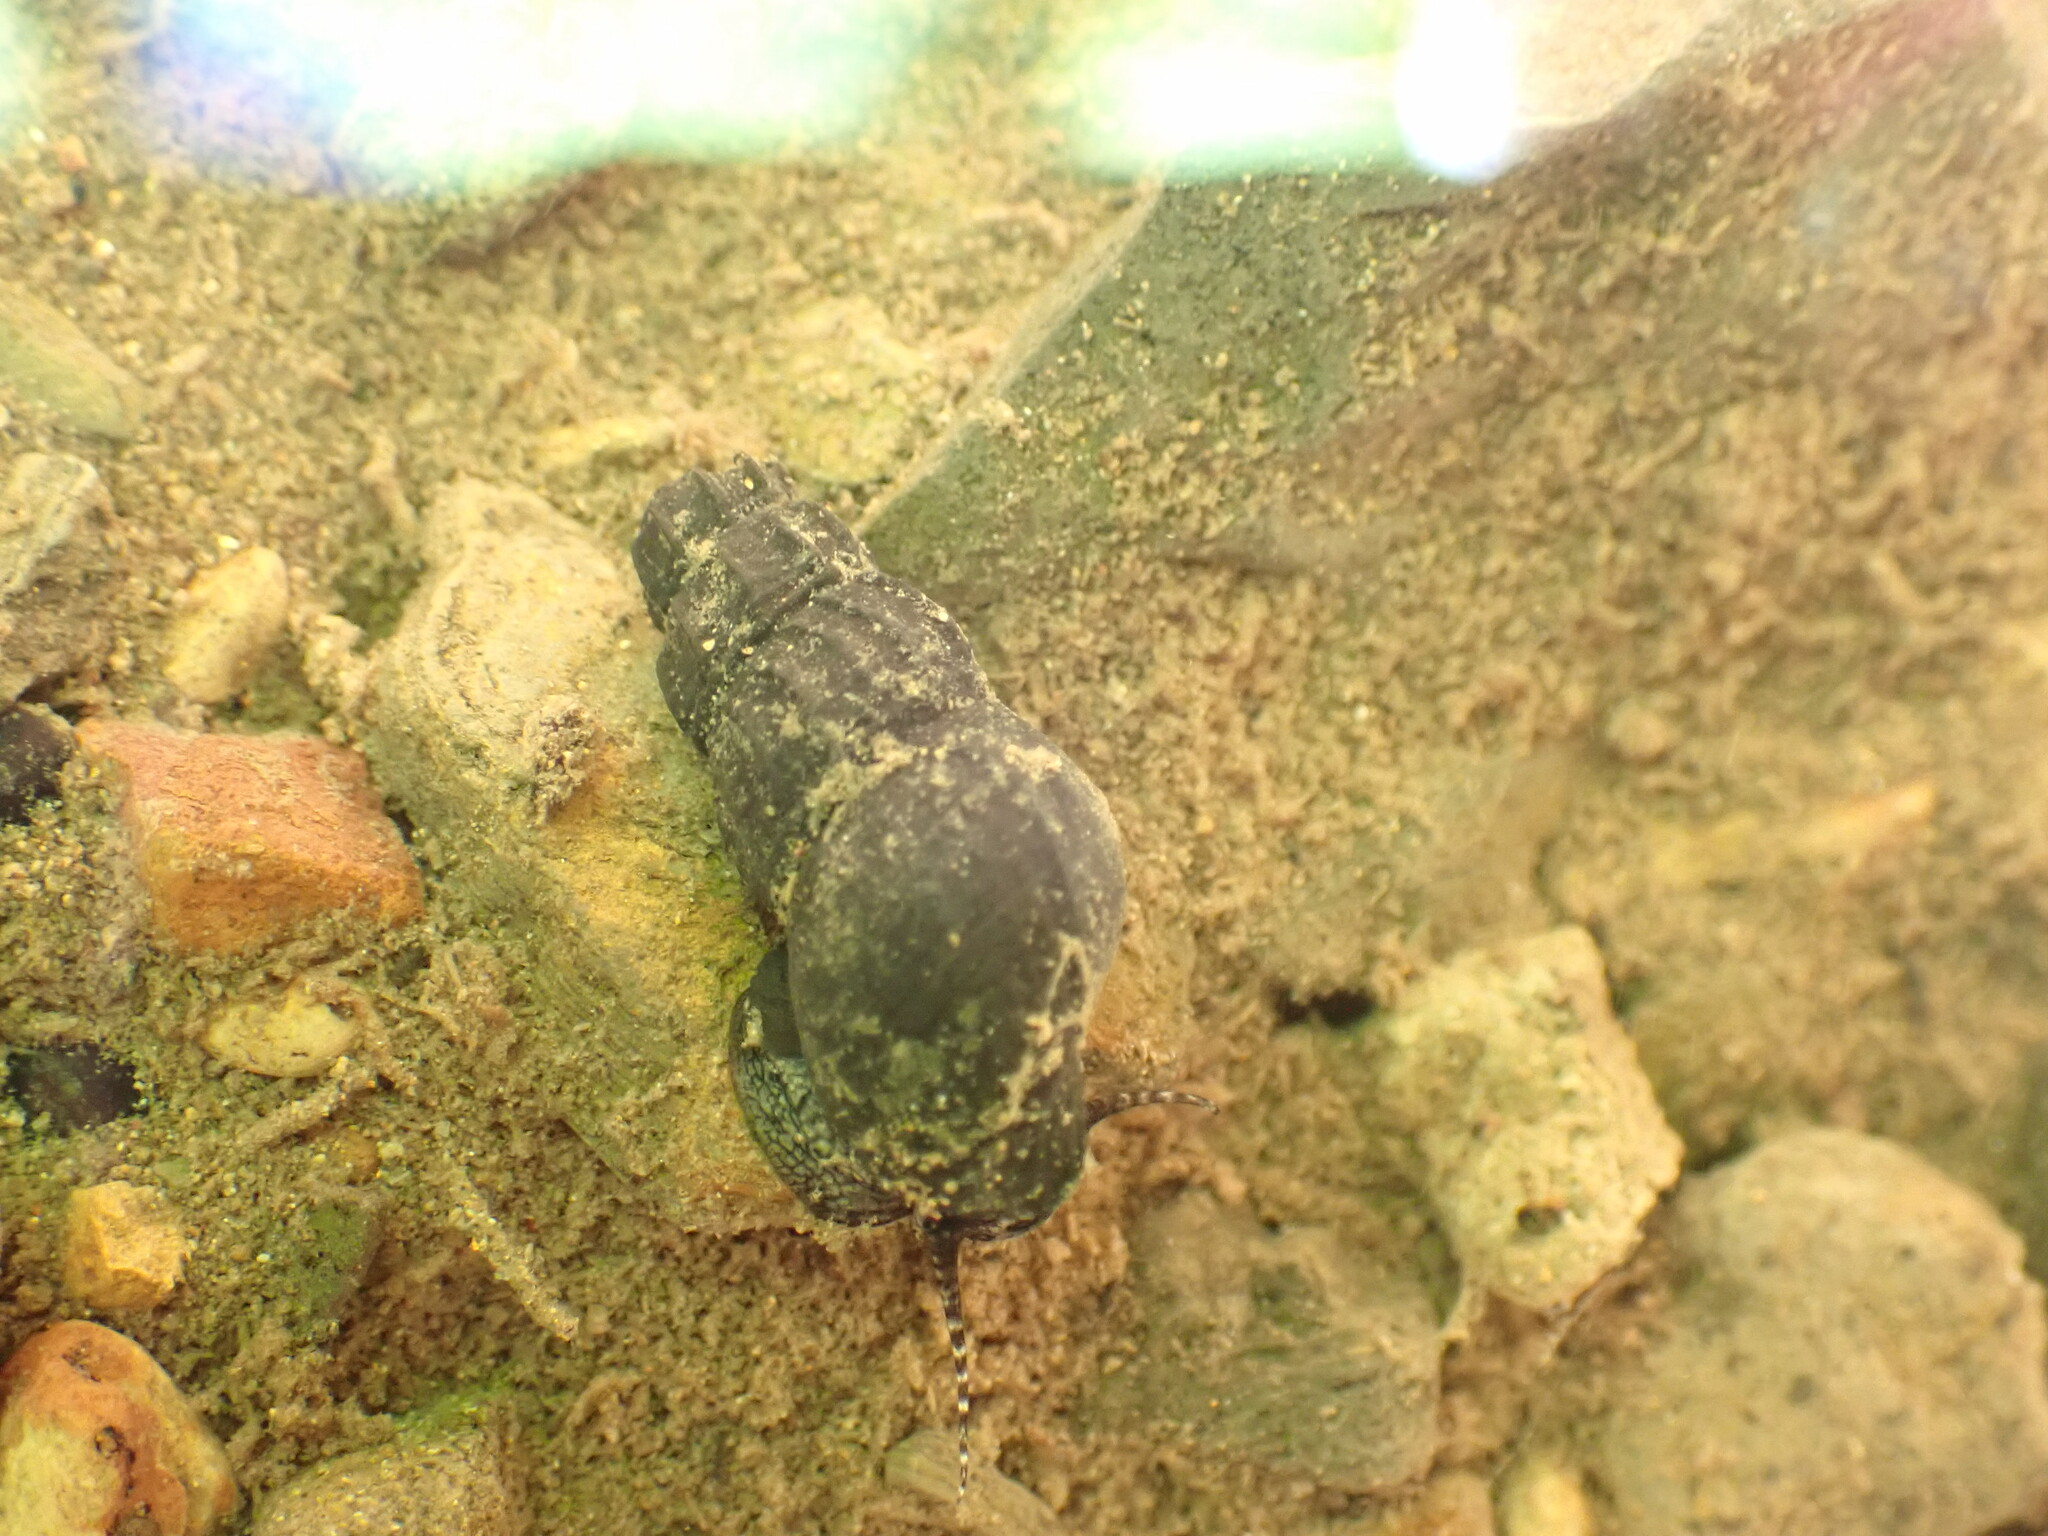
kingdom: Animalia
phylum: Mollusca
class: Gastropoda
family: Semisulcospiridae
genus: Juga
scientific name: Juga plicifera
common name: Pleated juga
